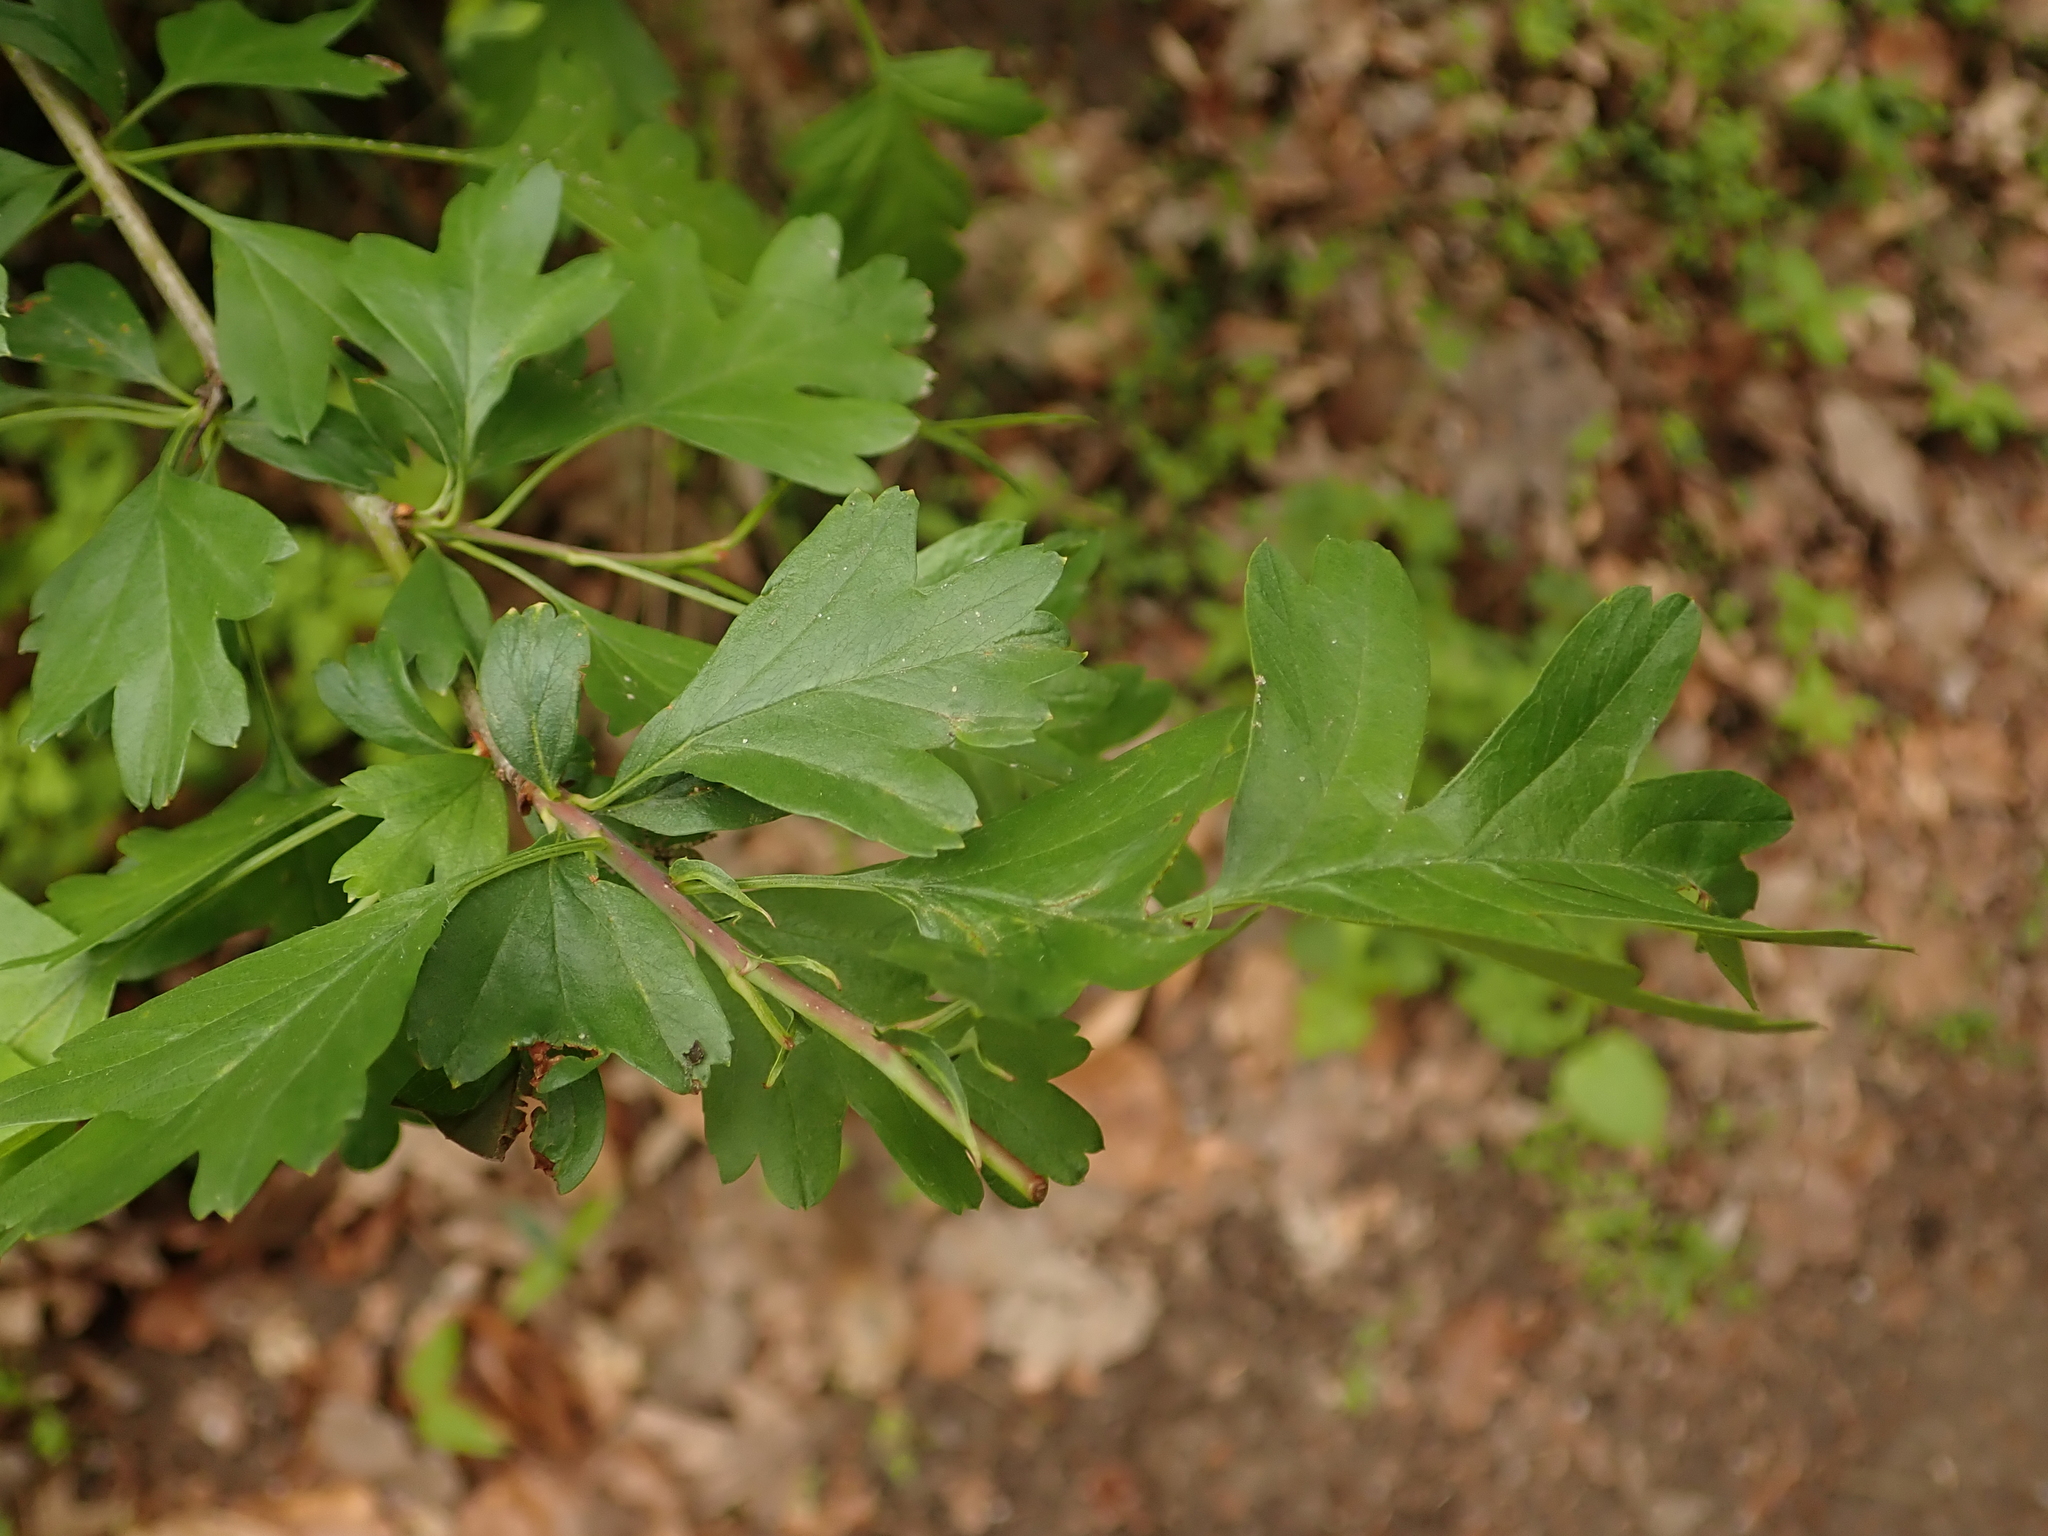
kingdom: Plantae
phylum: Tracheophyta
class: Magnoliopsida
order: Rosales
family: Rosaceae
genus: Crataegus
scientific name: Crataegus monogyna
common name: Hawthorn
